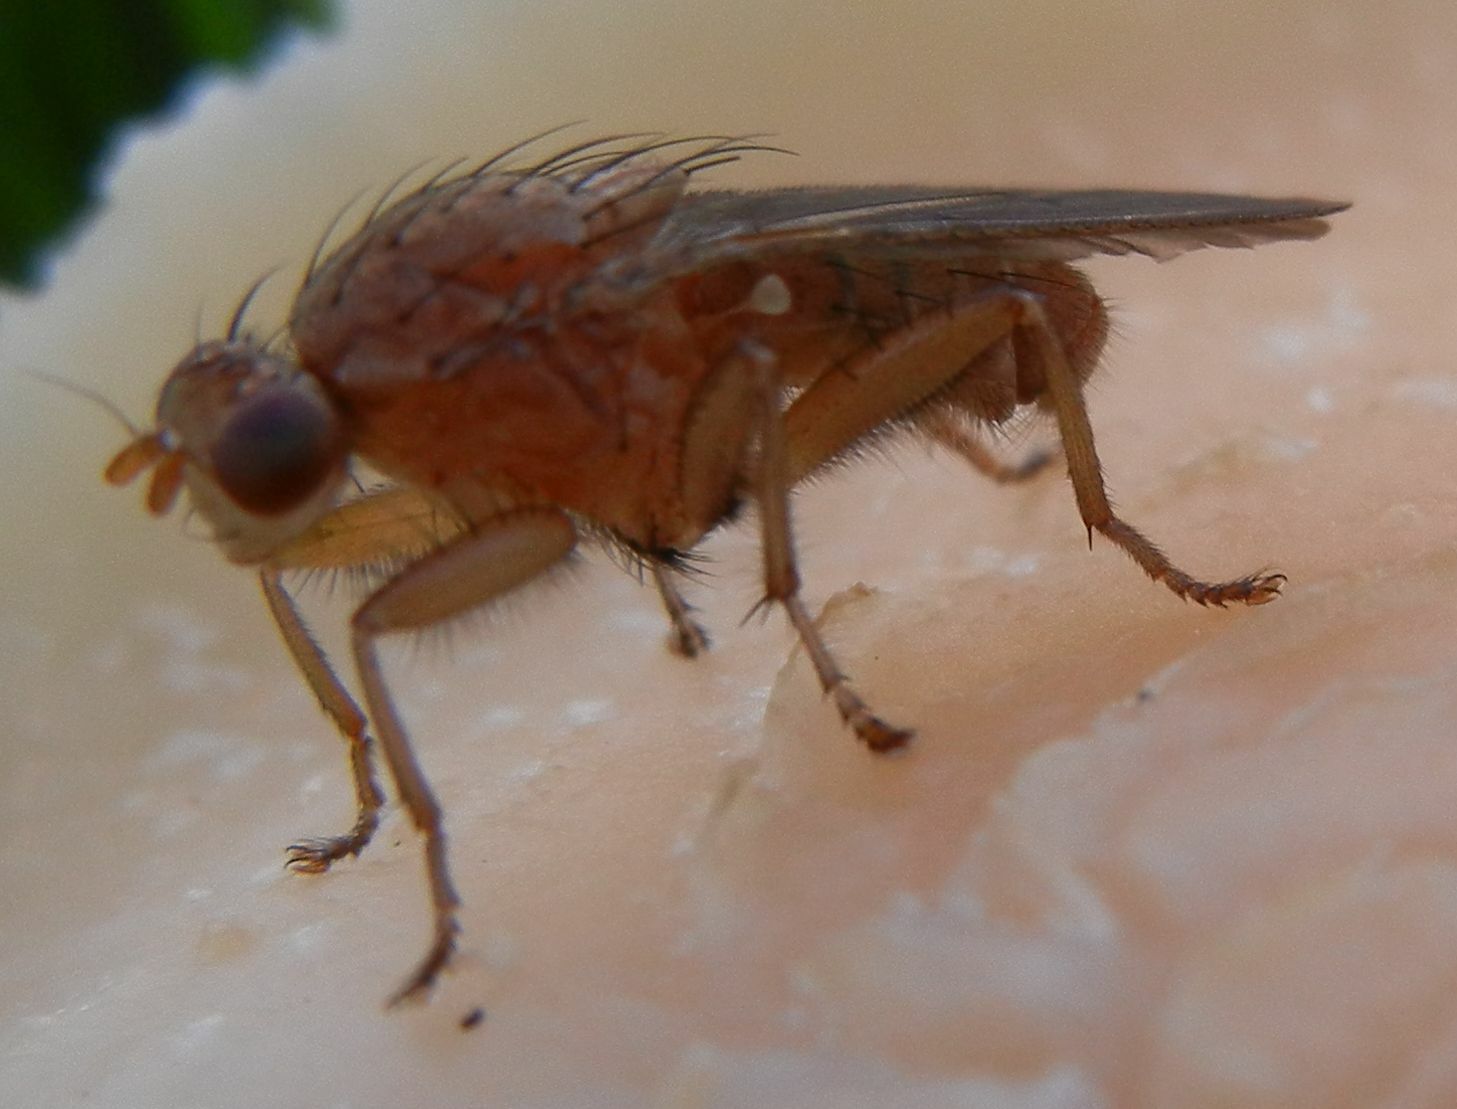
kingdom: Animalia
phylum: Arthropoda
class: Insecta
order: Diptera
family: Heleomyzidae
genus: Suillia
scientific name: Suillia notata
